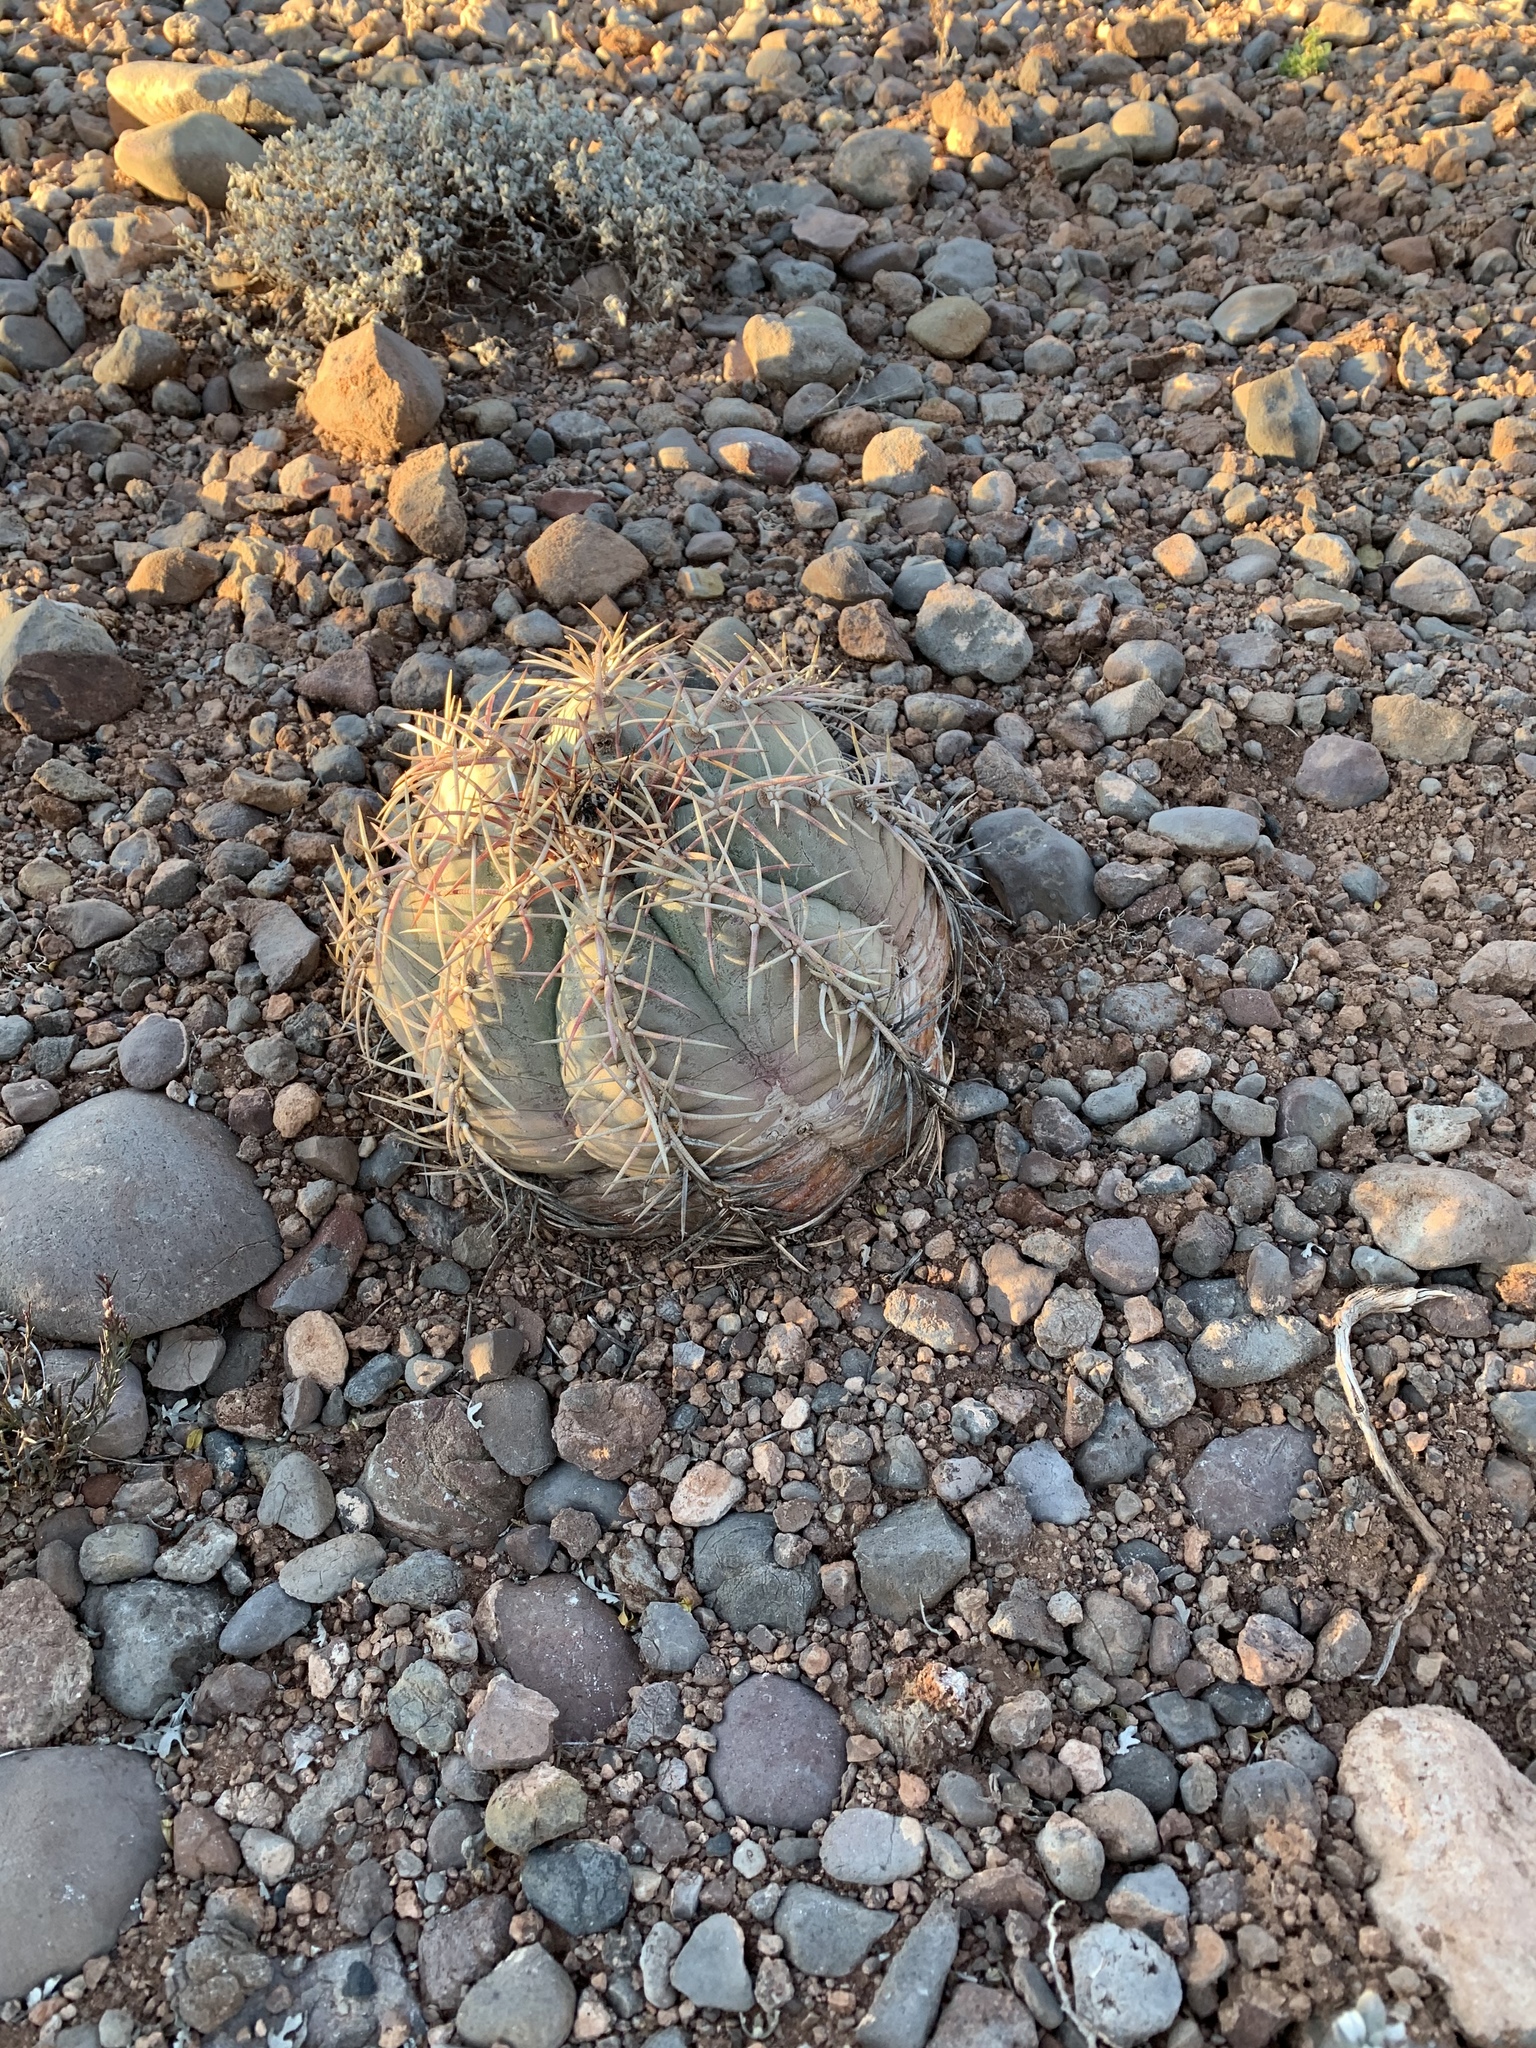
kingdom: Plantae
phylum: Tracheophyta
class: Magnoliopsida
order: Caryophyllales
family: Cactaceae
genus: Echinocactus
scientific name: Echinocactus horizonthalonius
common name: Devilshead
